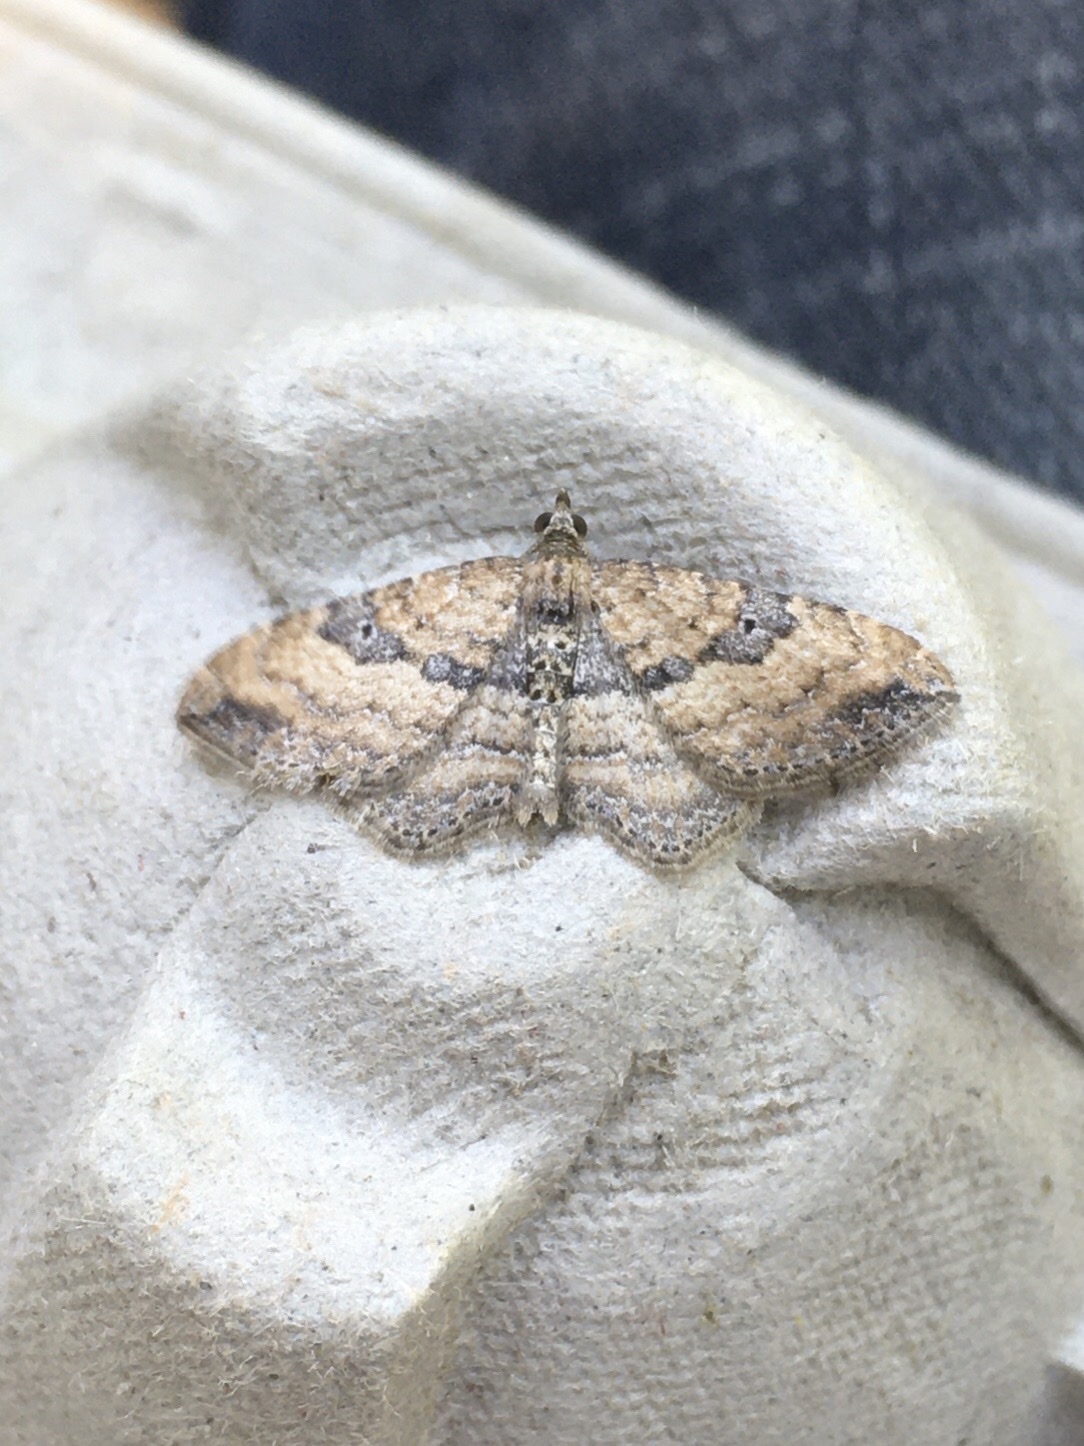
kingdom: Animalia
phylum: Arthropoda
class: Insecta
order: Lepidoptera
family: Geometridae
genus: Orthonama
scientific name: Orthonama obstipata
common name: The gem
